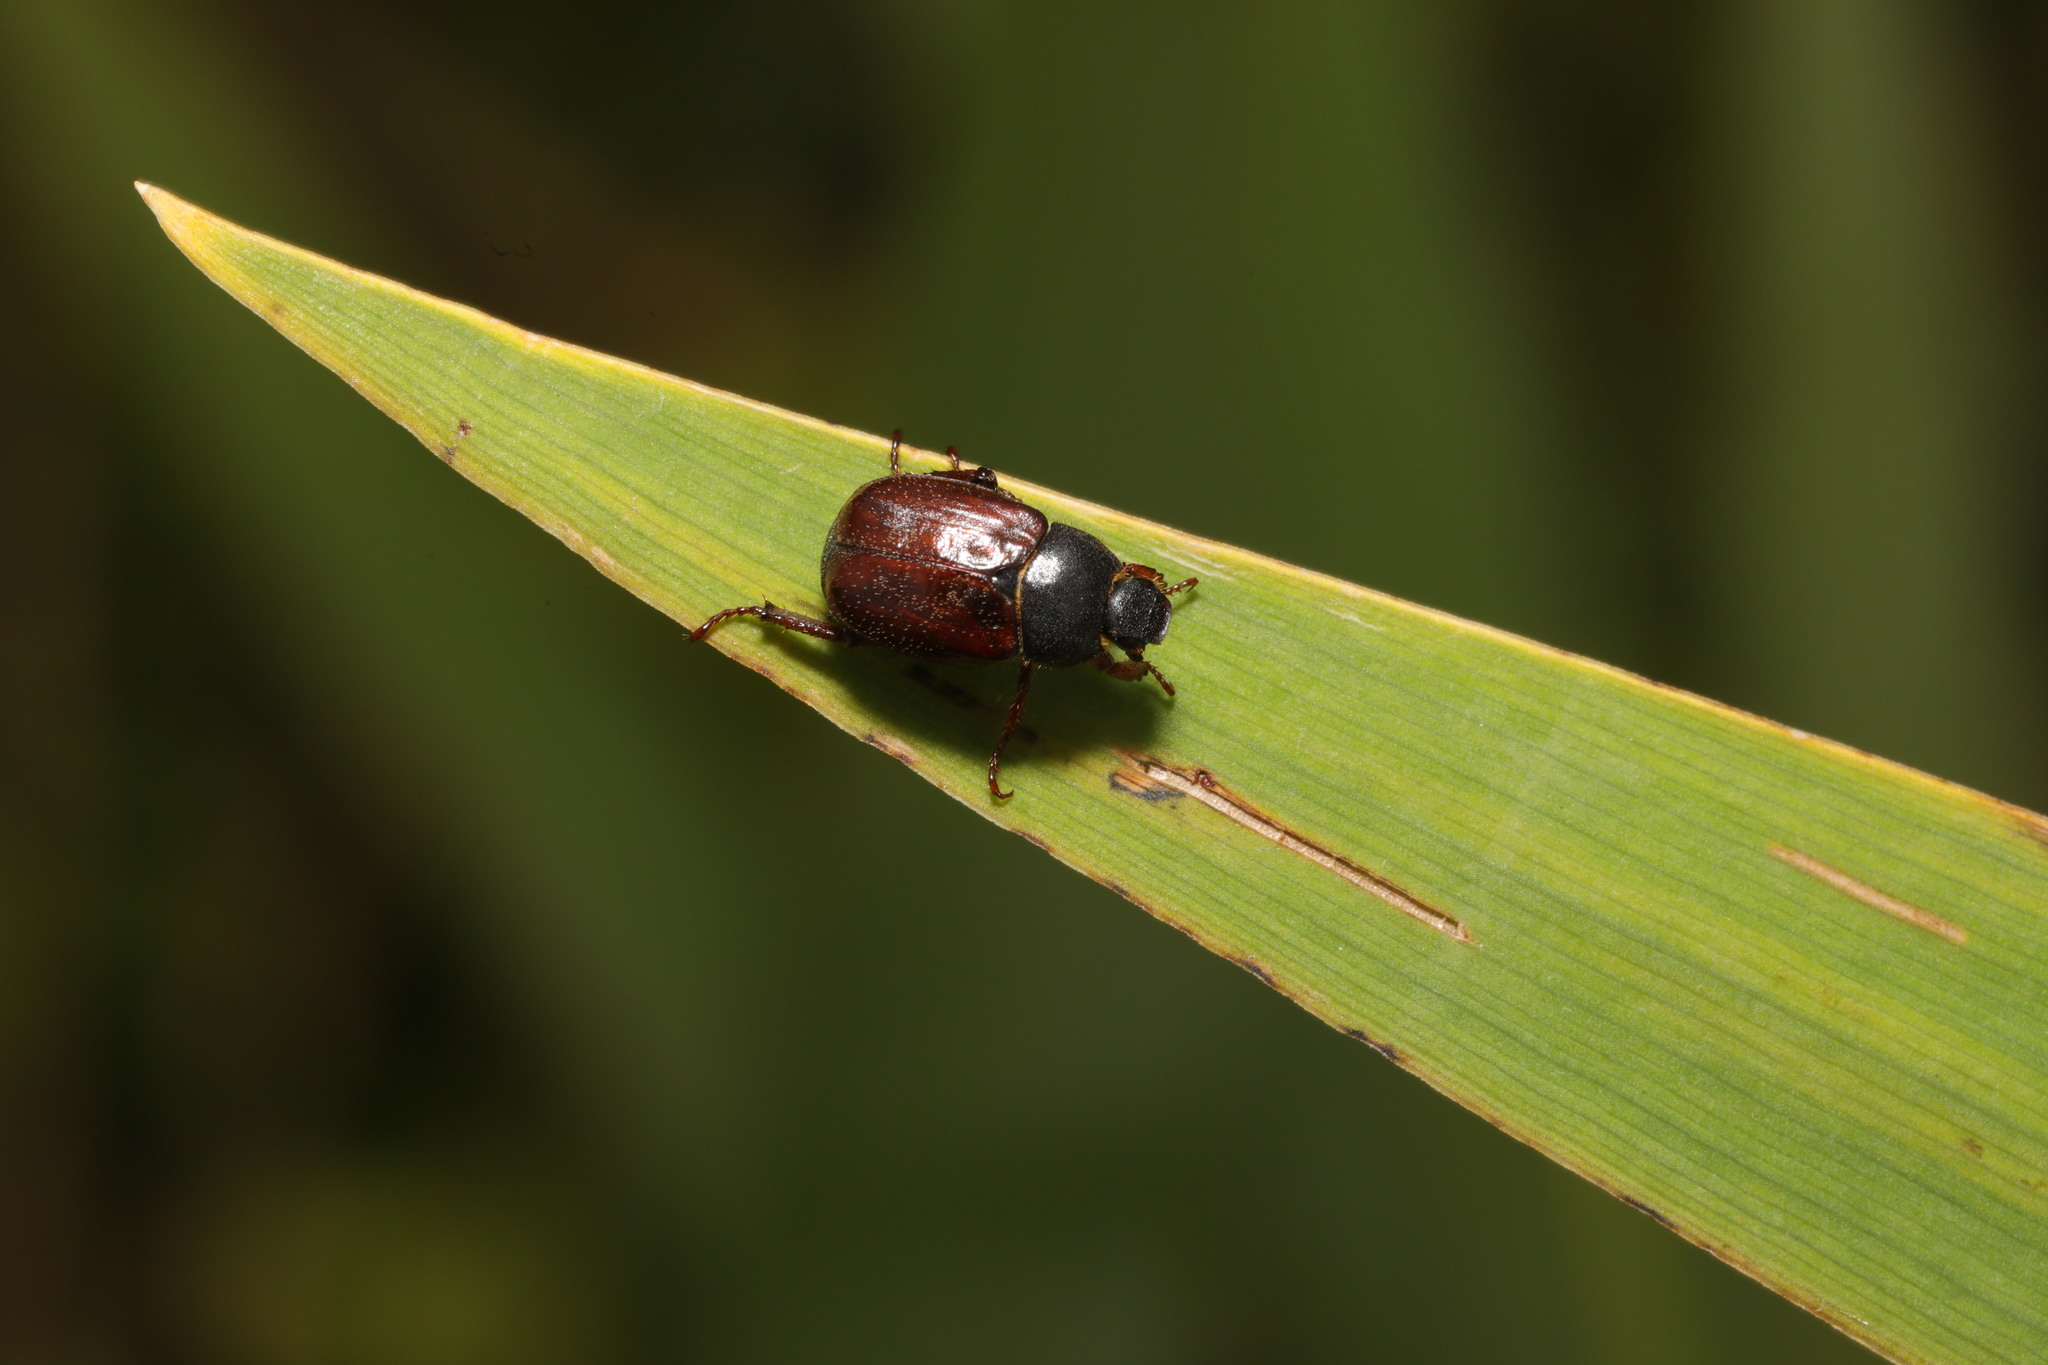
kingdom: Animalia
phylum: Arthropoda
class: Insecta
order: Coleoptera
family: Scarabaeidae
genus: Hoplia
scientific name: Hoplia philanthus
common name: Welsh chafer
